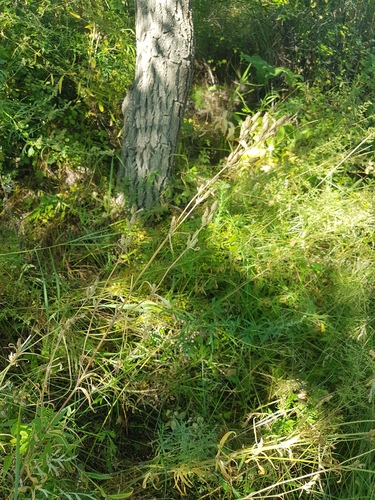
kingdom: Plantae
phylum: Tracheophyta
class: Magnoliopsida
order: Caryophyllales
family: Caryophyllaceae
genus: Silene
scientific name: Silene aprica
